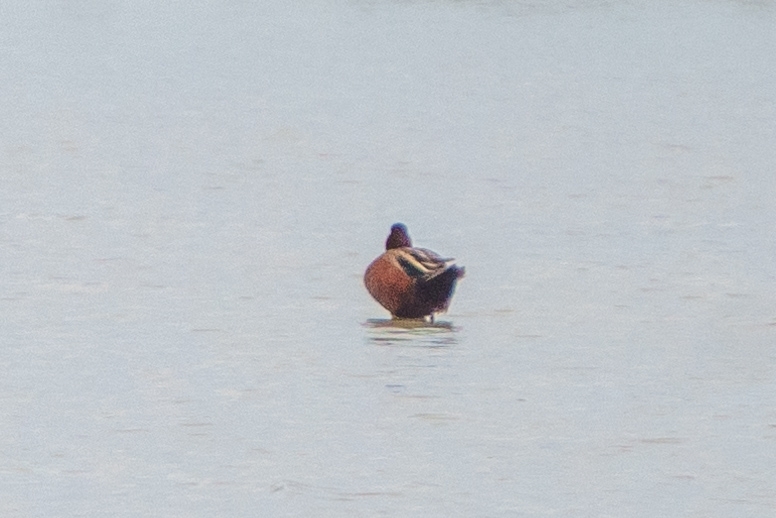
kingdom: Animalia
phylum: Chordata
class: Aves
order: Anseriformes
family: Anatidae
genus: Spatula
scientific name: Spatula cyanoptera
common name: Cinnamon teal
